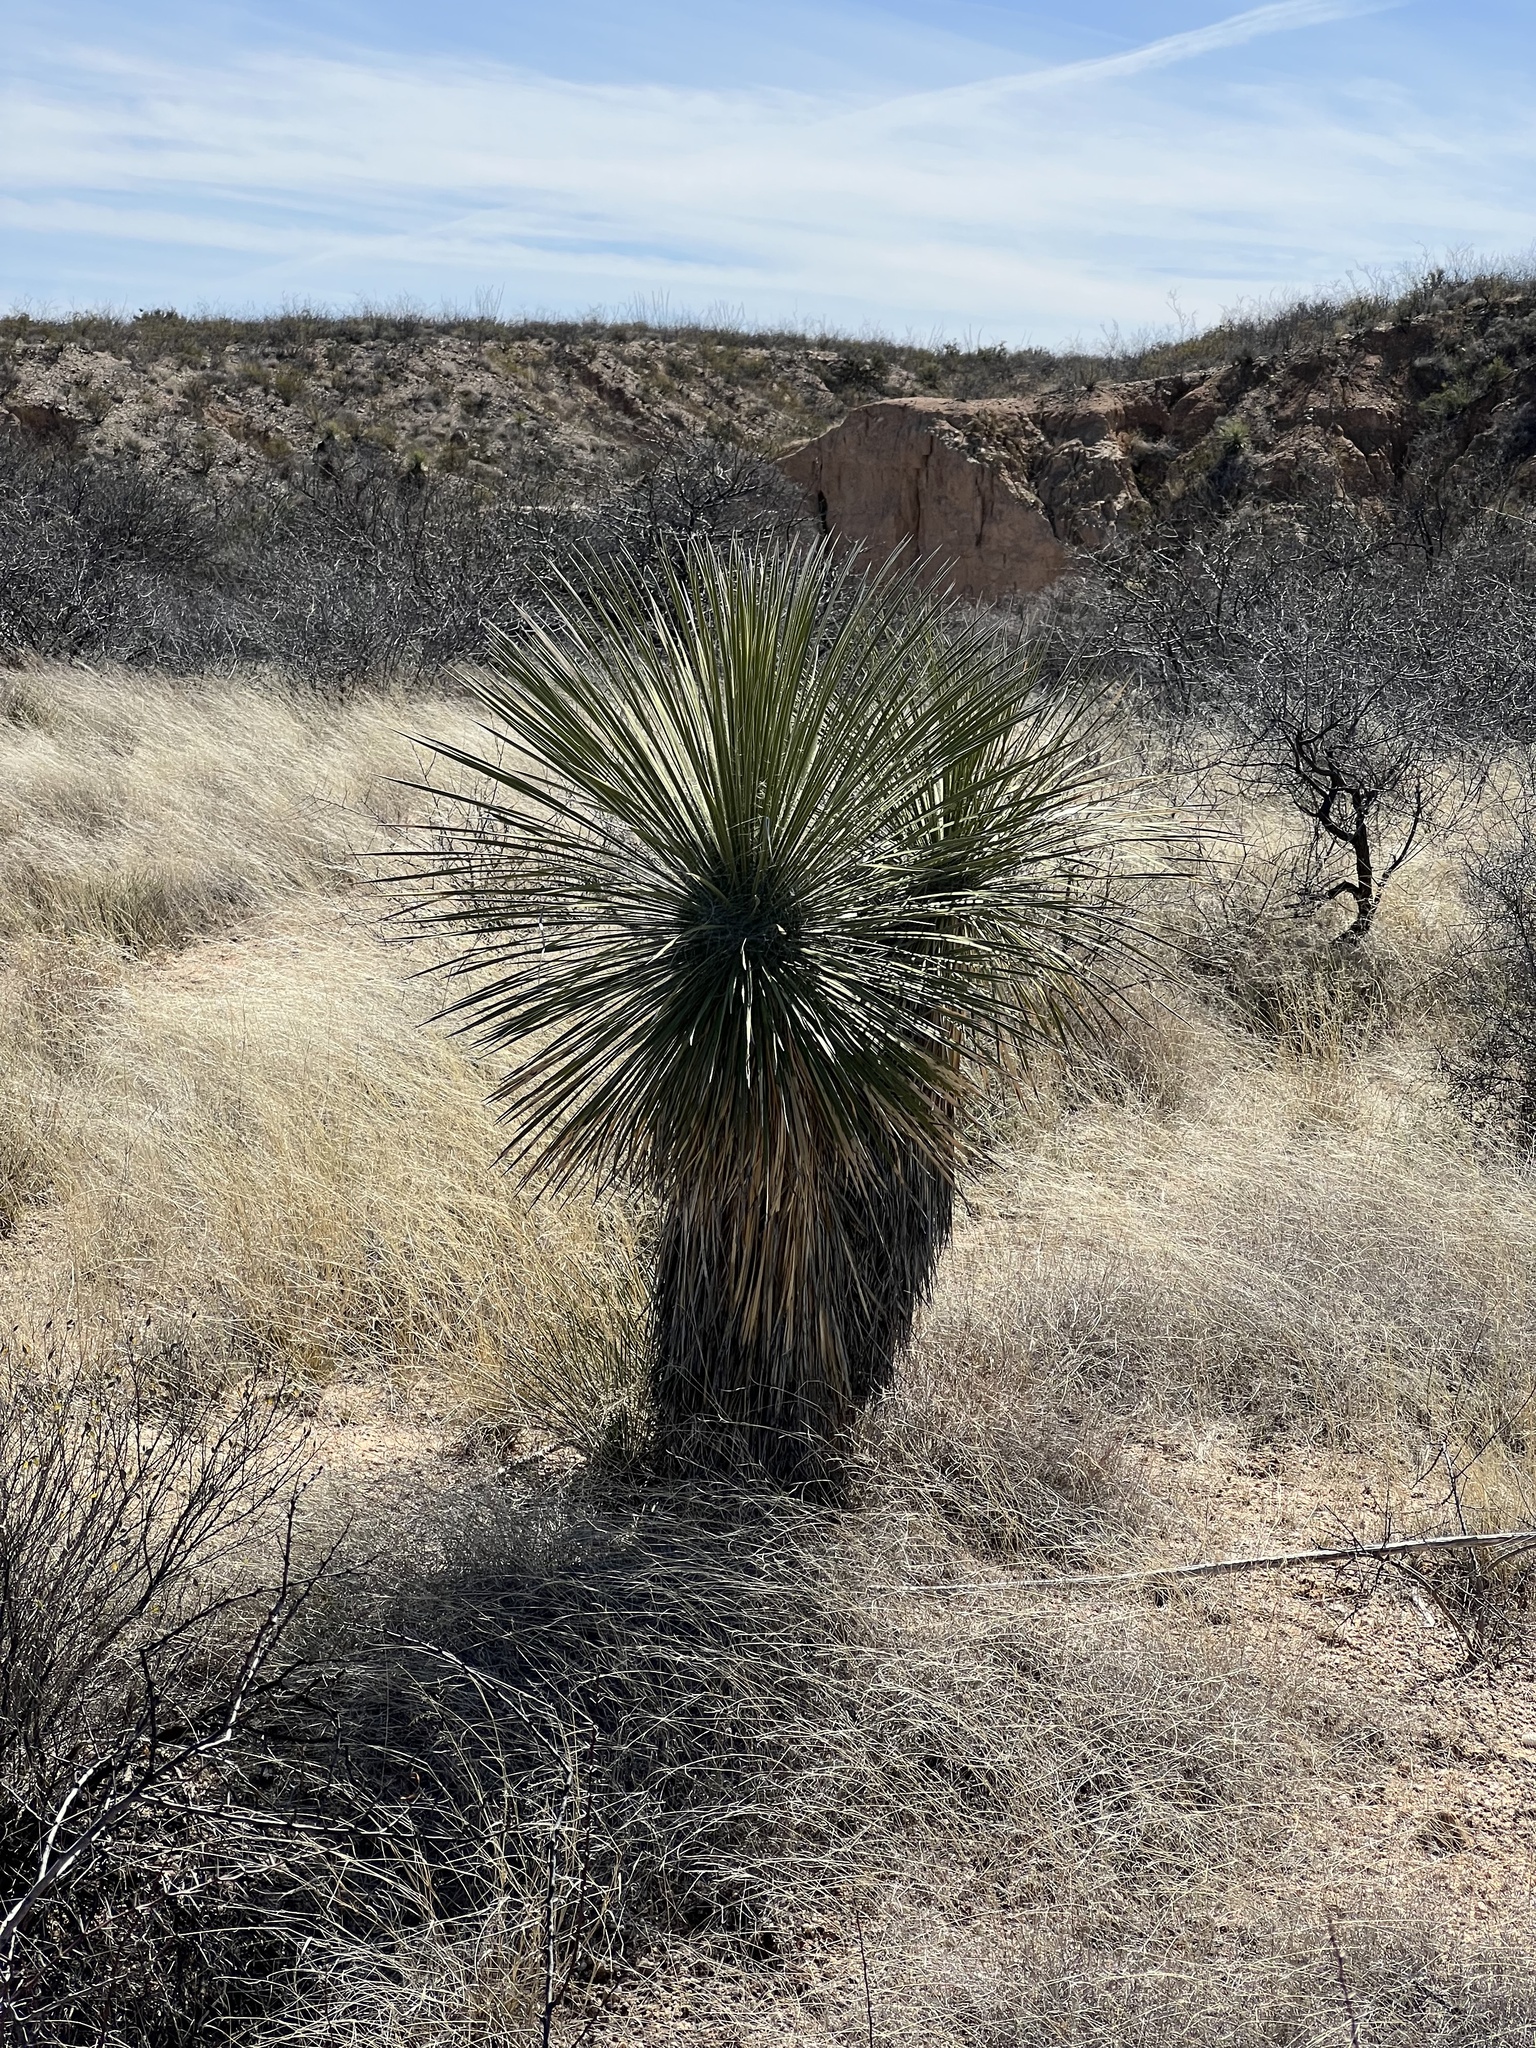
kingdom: Plantae
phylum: Tracheophyta
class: Liliopsida
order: Asparagales
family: Asparagaceae
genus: Yucca
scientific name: Yucca elata
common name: Palmella
